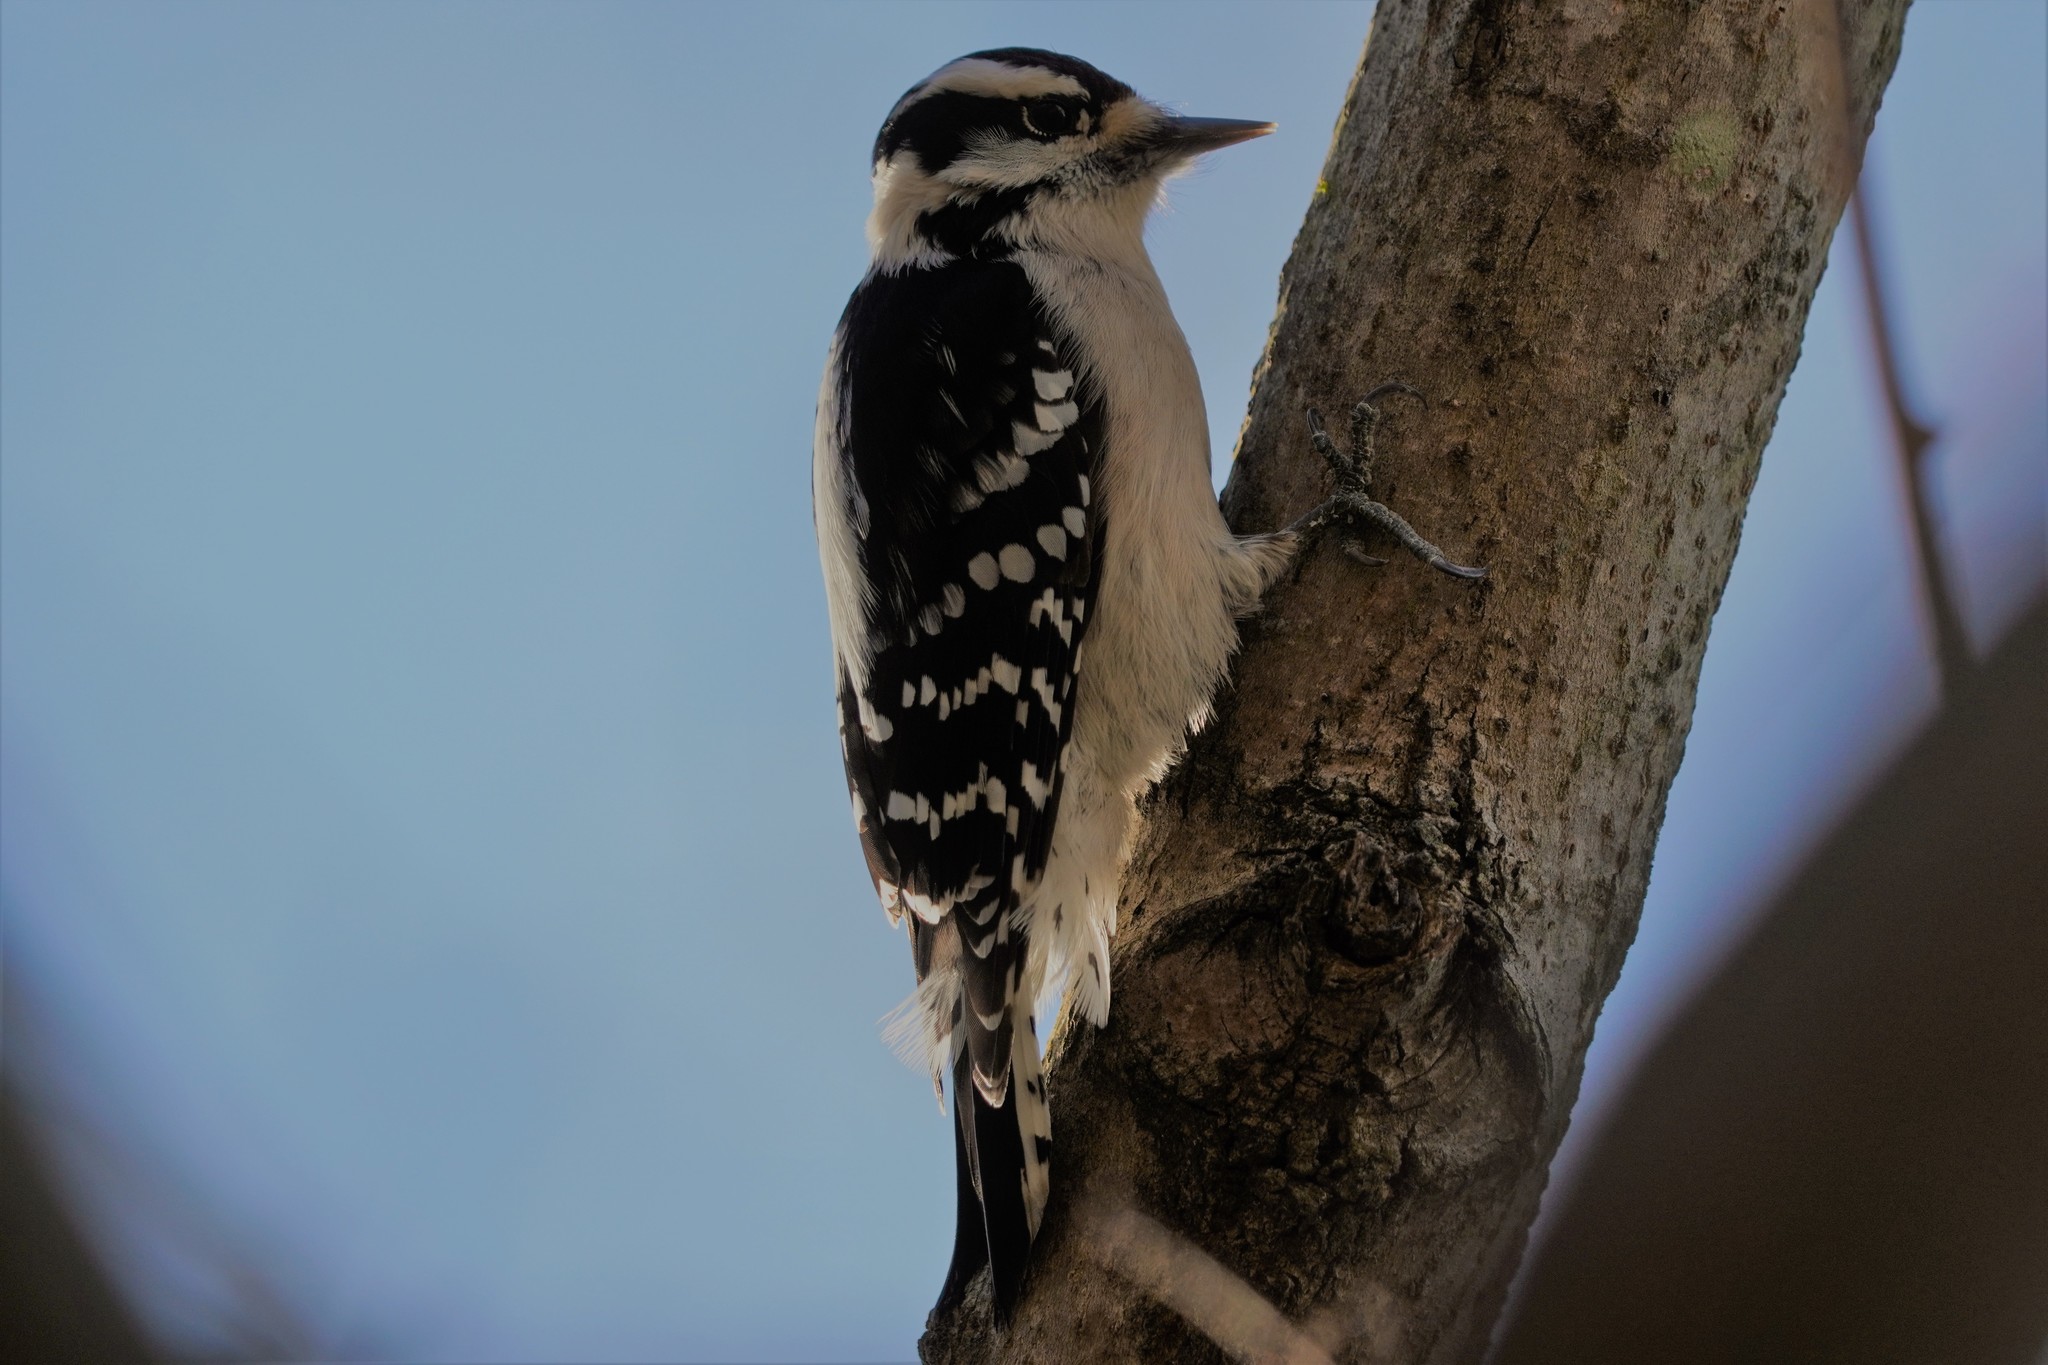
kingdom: Animalia
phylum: Chordata
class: Aves
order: Piciformes
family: Picidae
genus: Dryobates
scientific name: Dryobates pubescens
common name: Downy woodpecker
